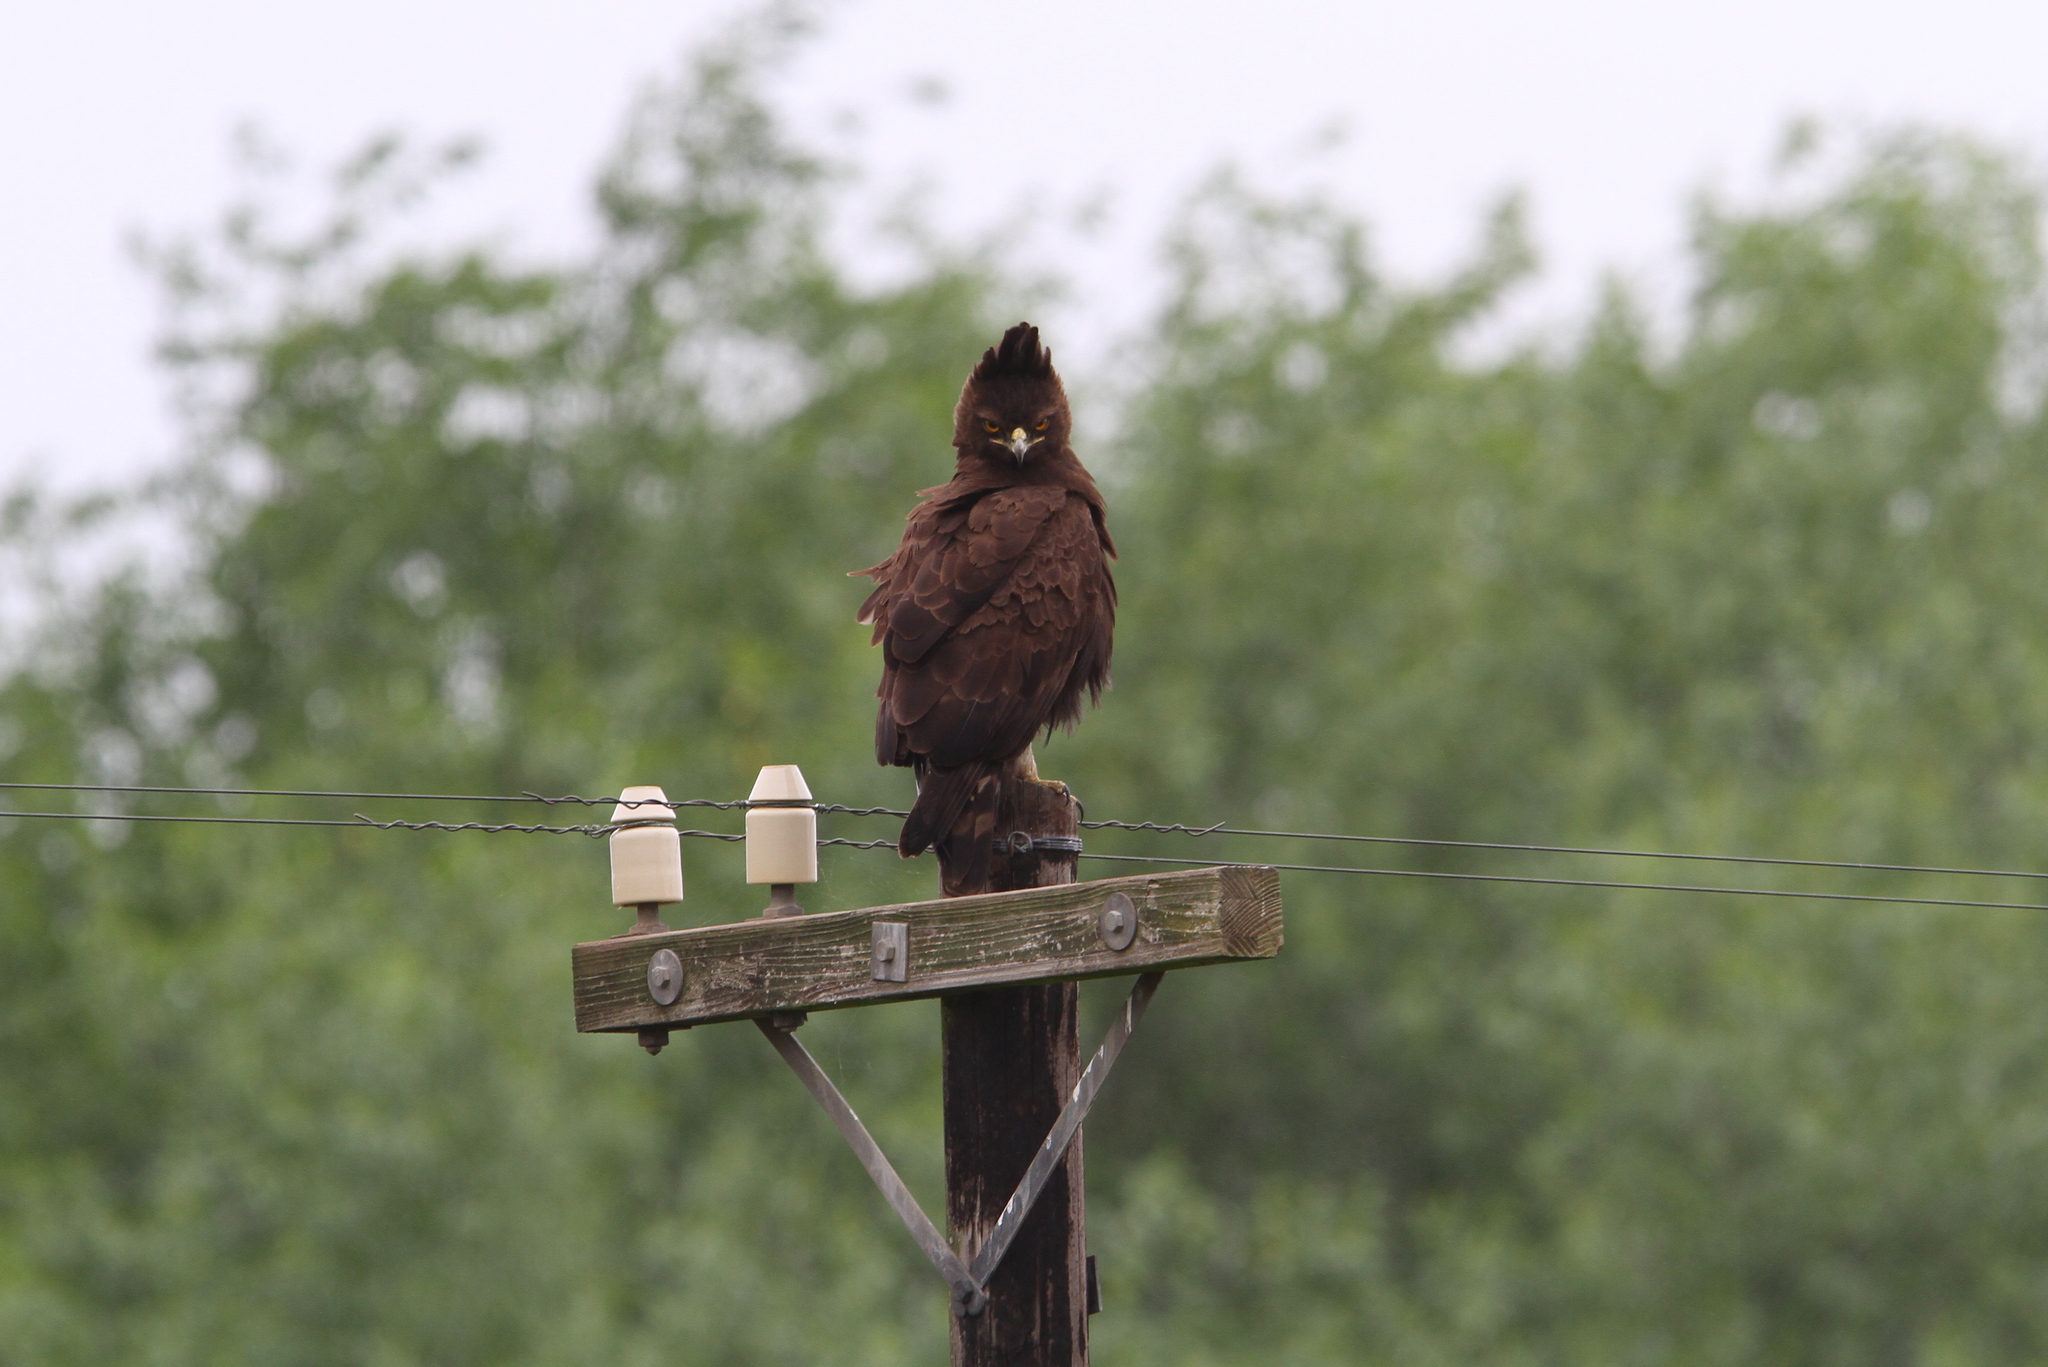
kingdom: Animalia
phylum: Chordata
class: Aves
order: Accipitriformes
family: Accipitridae
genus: Lophaetus
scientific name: Lophaetus occipitalis
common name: Long-crested eagle
